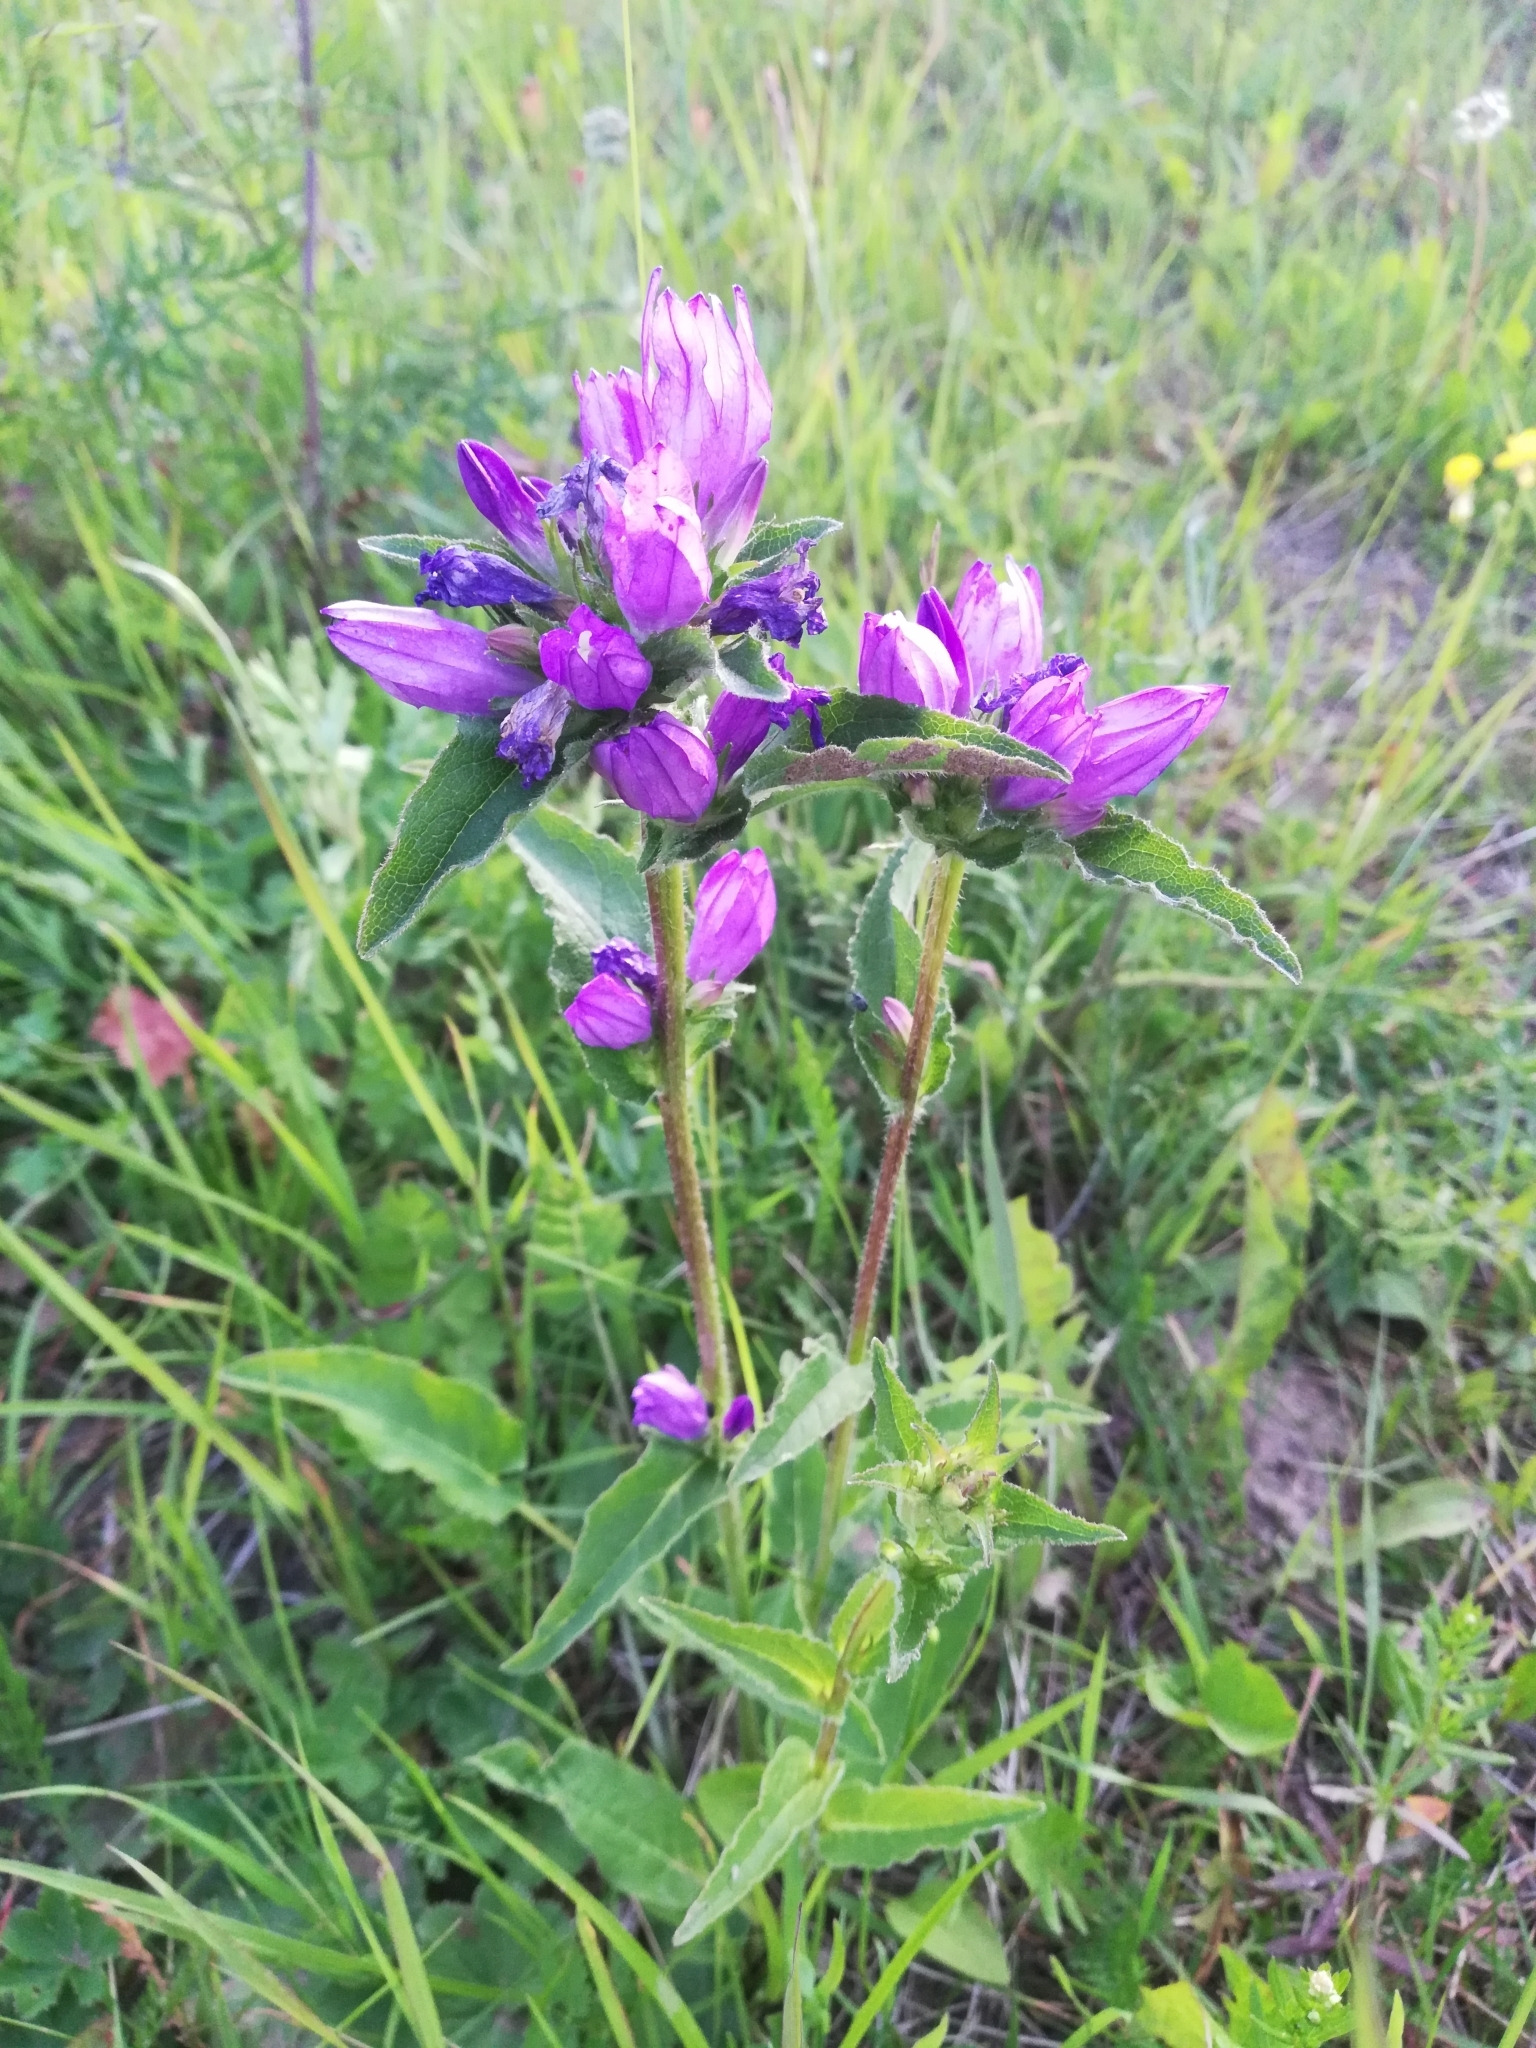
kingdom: Plantae
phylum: Tracheophyta
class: Magnoliopsida
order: Asterales
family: Campanulaceae
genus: Campanula
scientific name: Campanula glomerata
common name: Clustered bellflower
